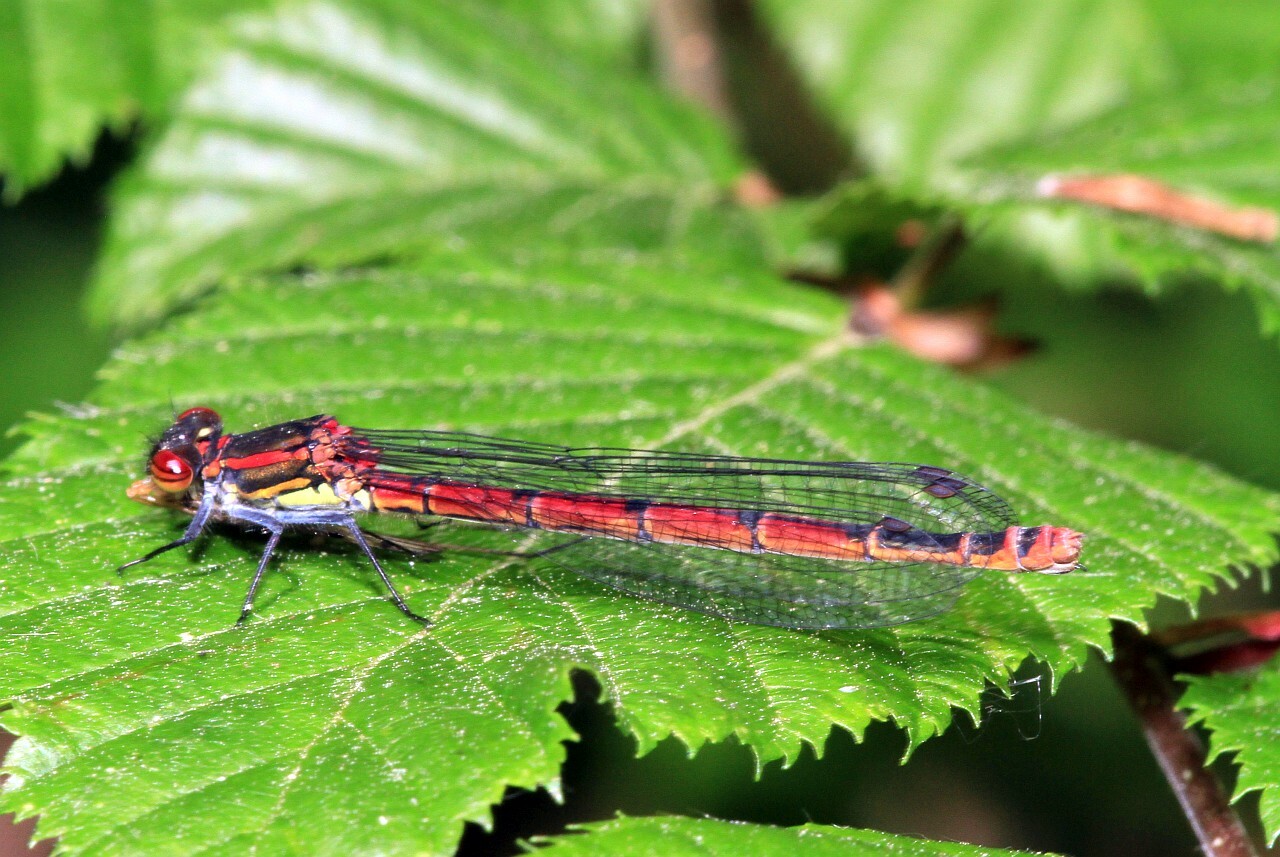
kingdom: Animalia
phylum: Arthropoda
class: Insecta
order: Odonata
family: Coenagrionidae
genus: Pyrrhosoma
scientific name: Pyrrhosoma nymphula
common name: Large red damsel
